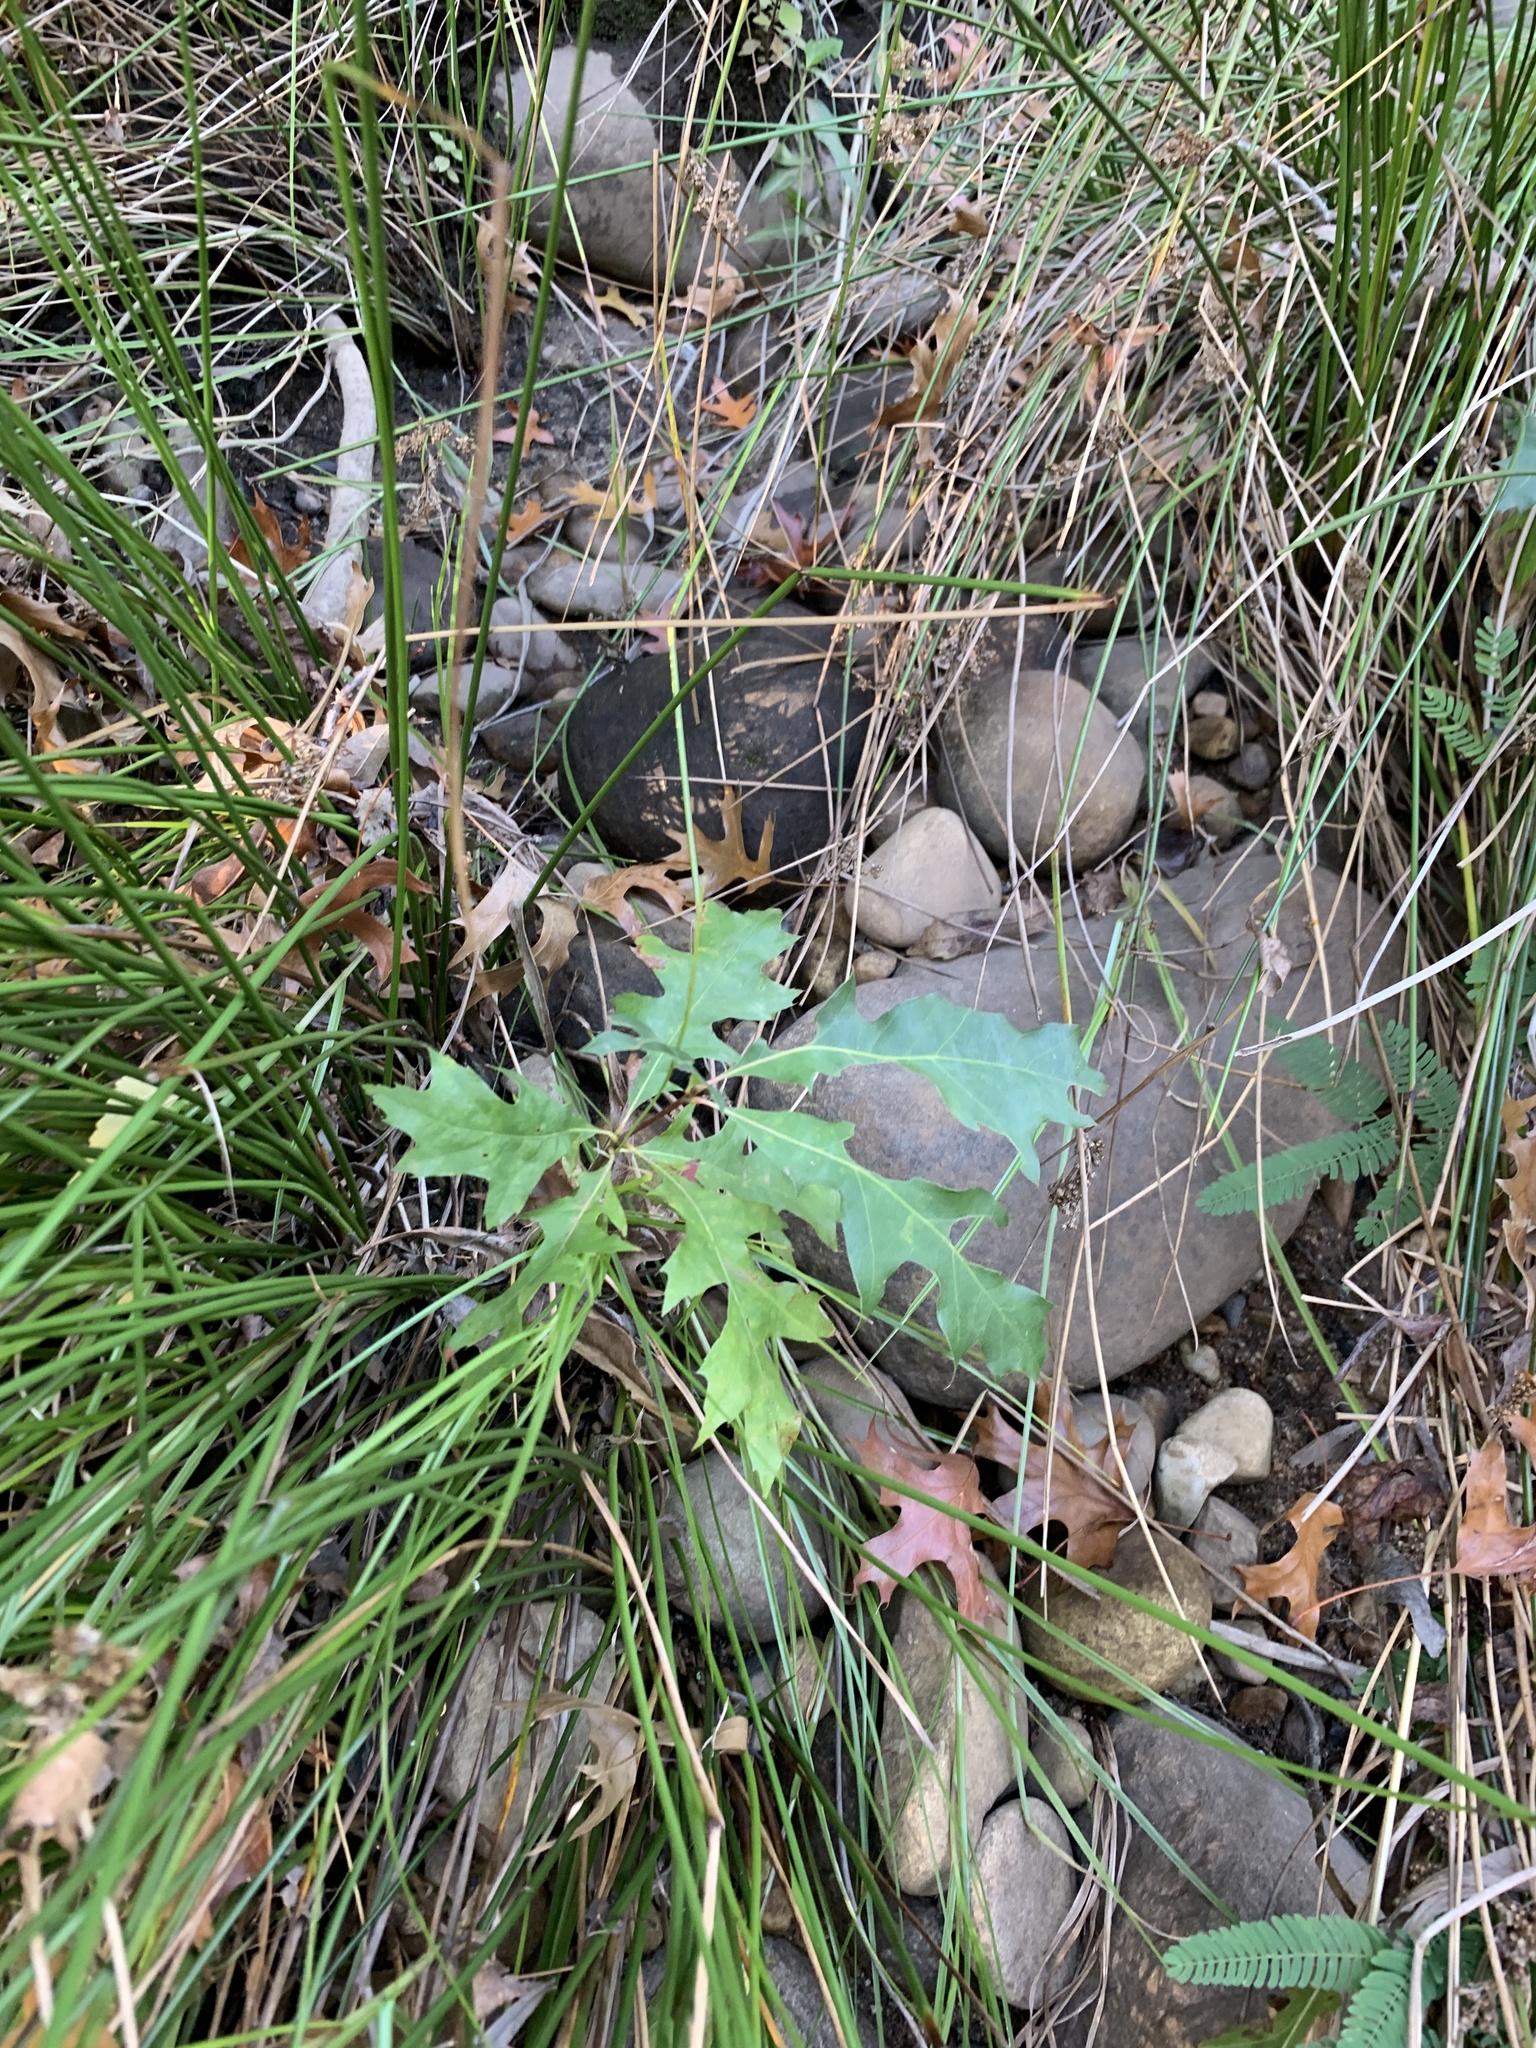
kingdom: Plantae
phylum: Tracheophyta
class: Magnoliopsida
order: Fagales
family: Fagaceae
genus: Quercus
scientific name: Quercus palustris
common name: Pin oak
